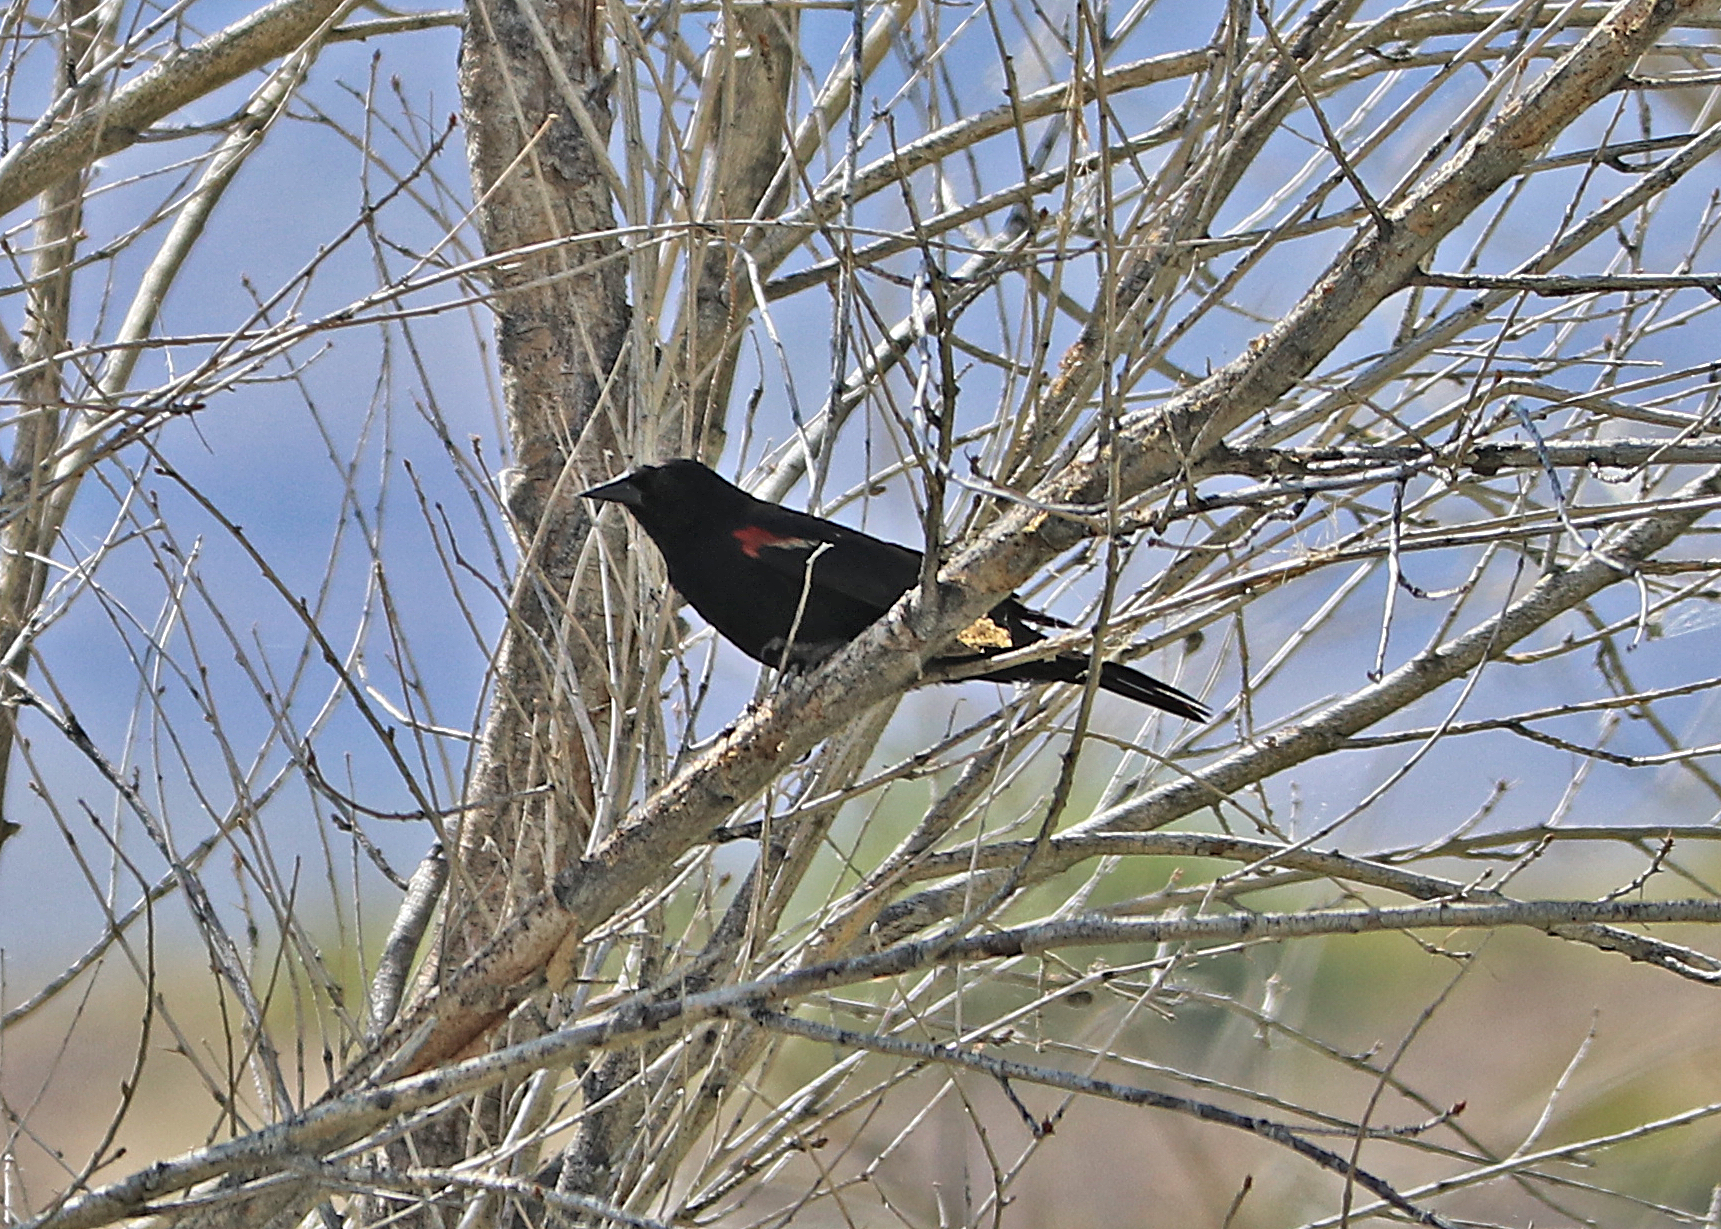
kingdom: Animalia
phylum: Chordata
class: Aves
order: Passeriformes
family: Icteridae
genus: Agelaius
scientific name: Agelaius phoeniceus
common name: Red-winged blackbird
